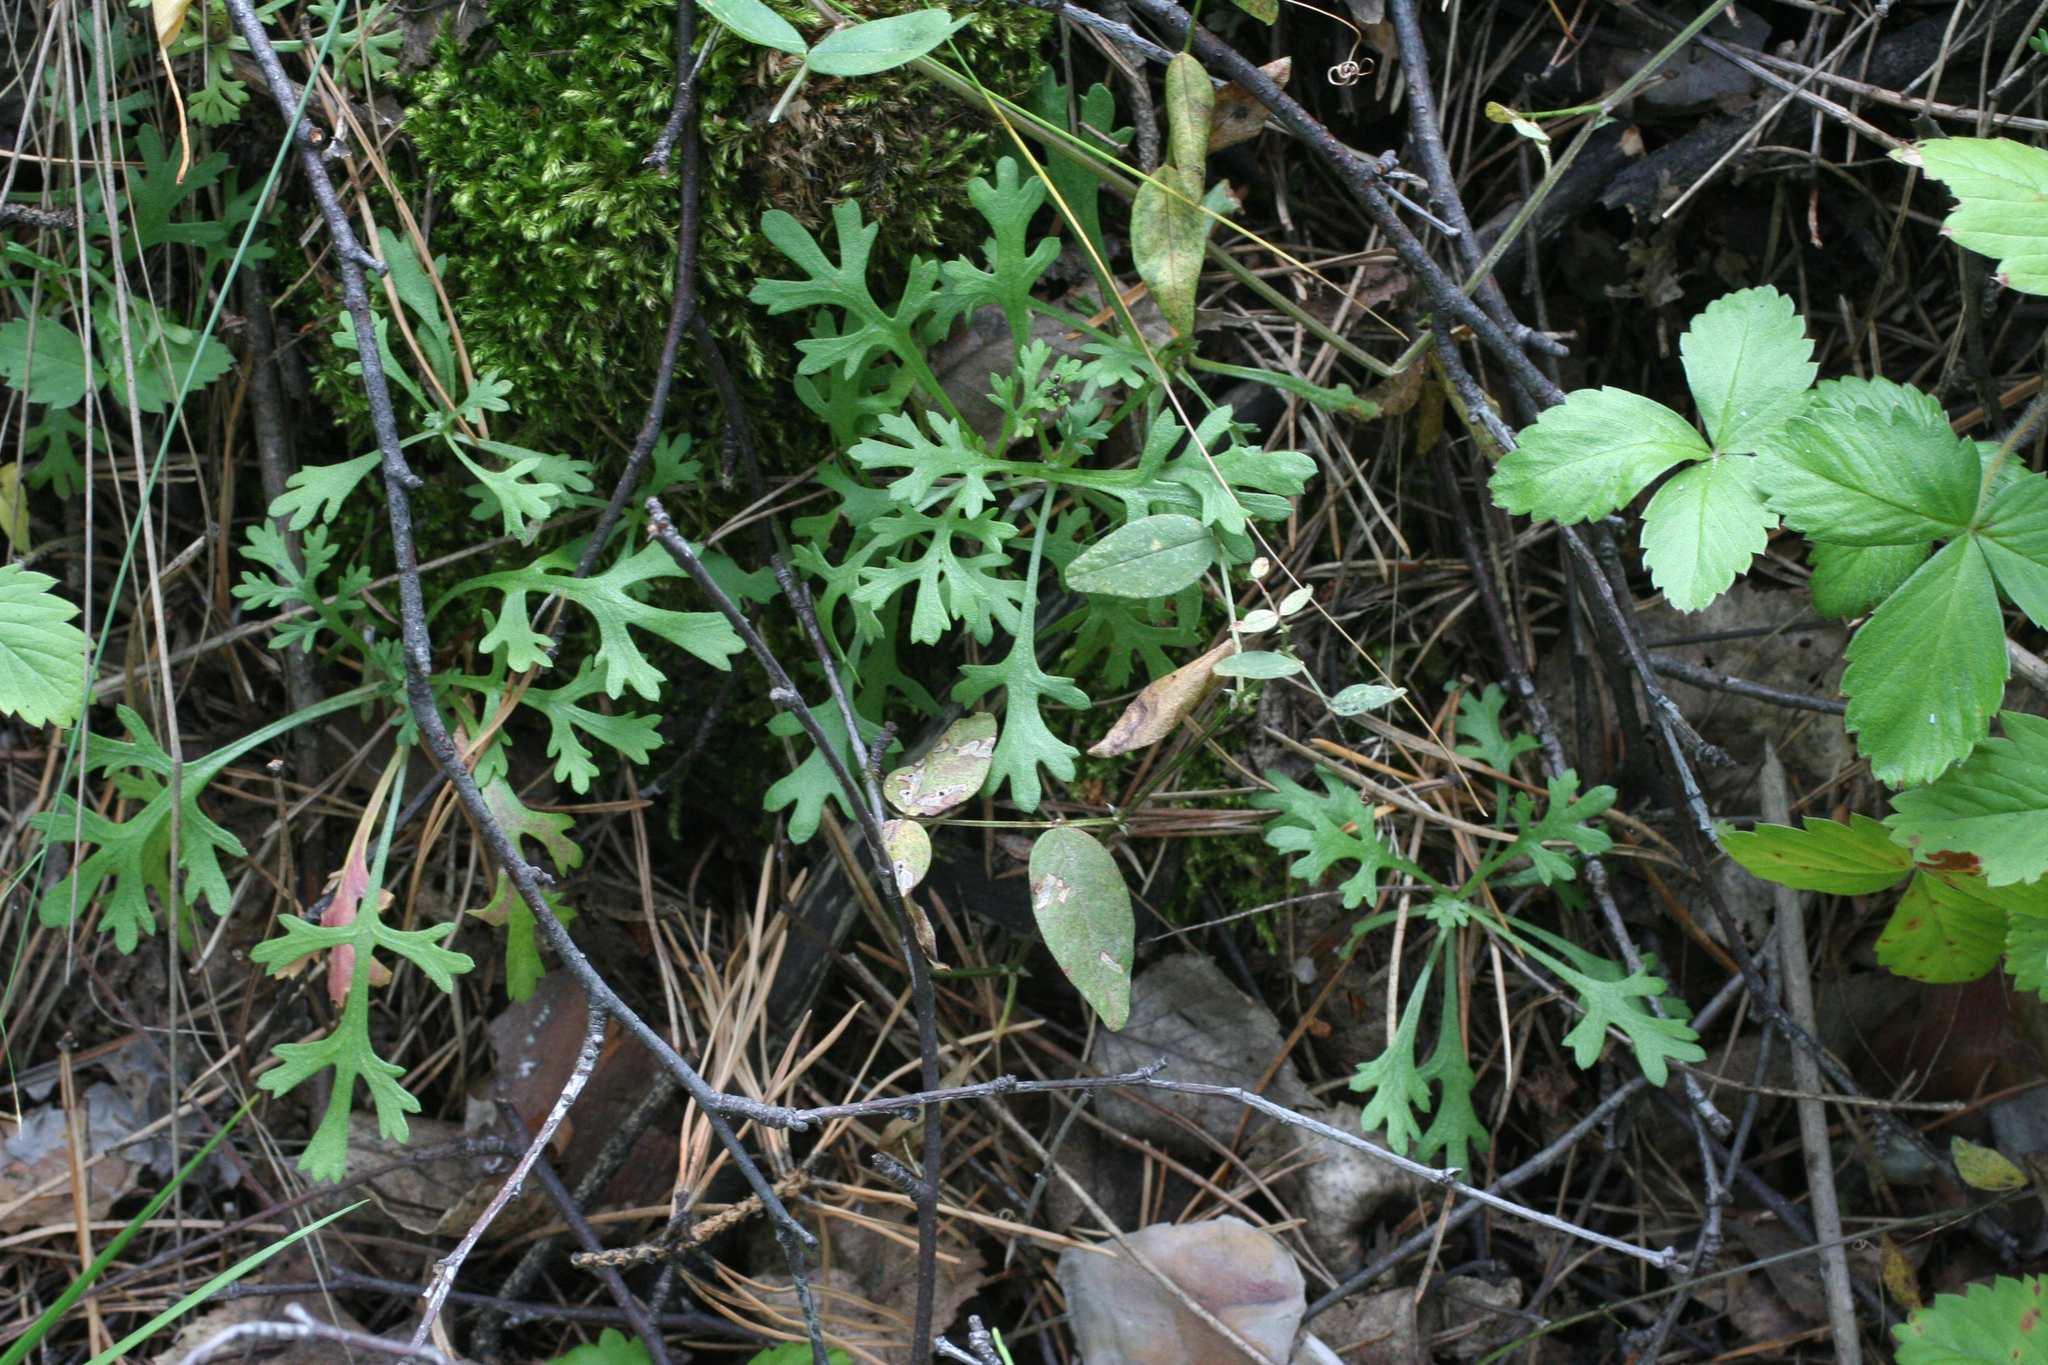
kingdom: Plantae
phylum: Tracheophyta
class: Magnoliopsida
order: Asterales
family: Asteraceae
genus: Chrysanthemum
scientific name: Chrysanthemum zawadzkii
